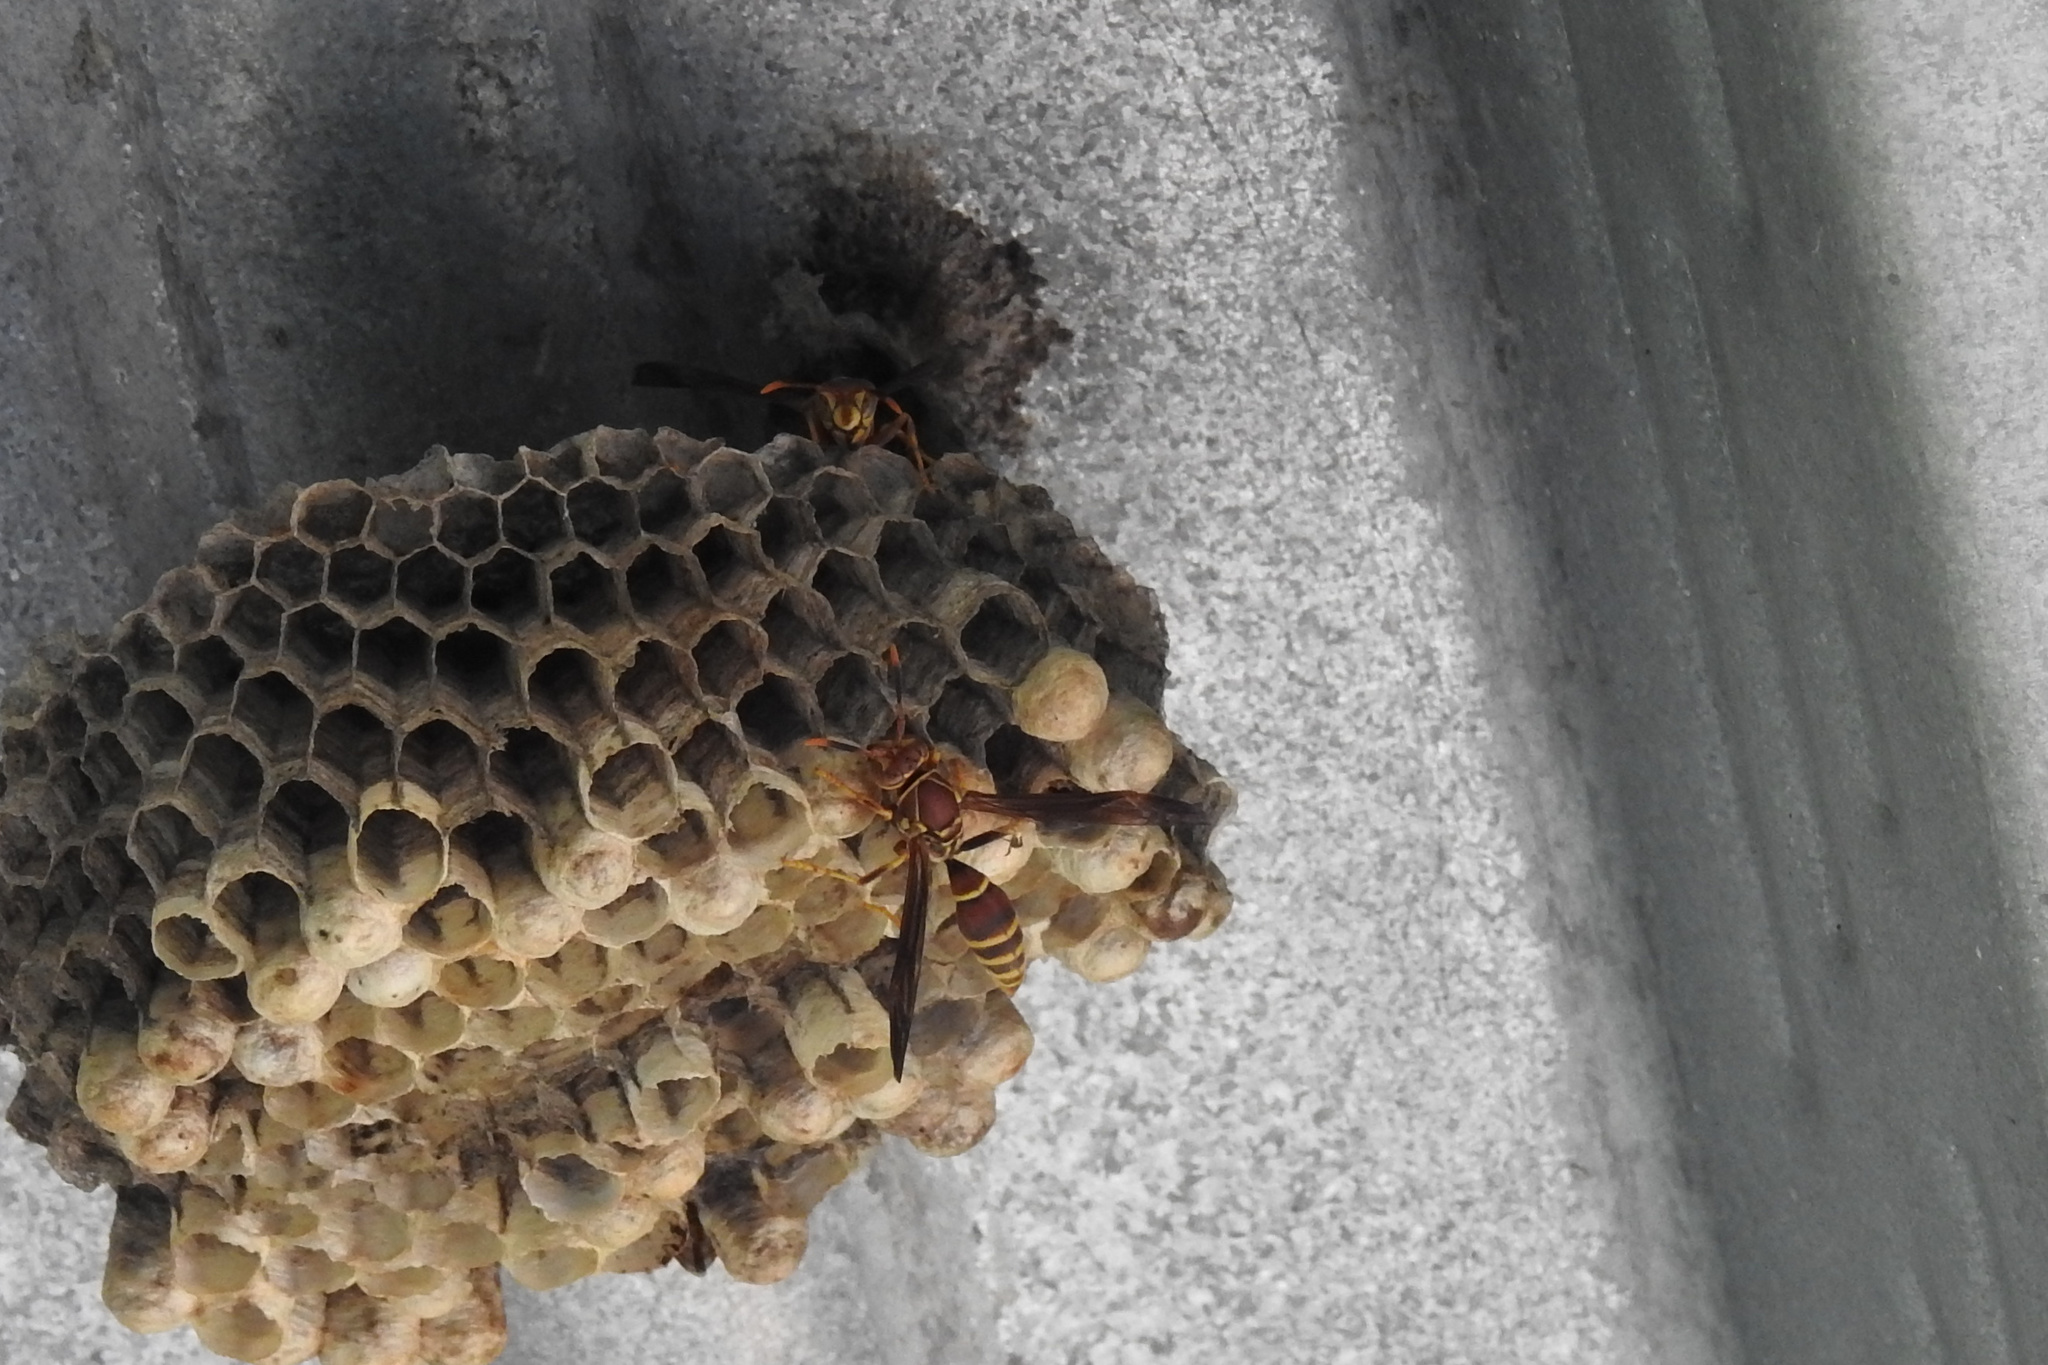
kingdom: Animalia
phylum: Arthropoda
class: Insecta
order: Hymenoptera
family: Eumenidae
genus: Polistes
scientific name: Polistes exclamans
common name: Paper wasp
